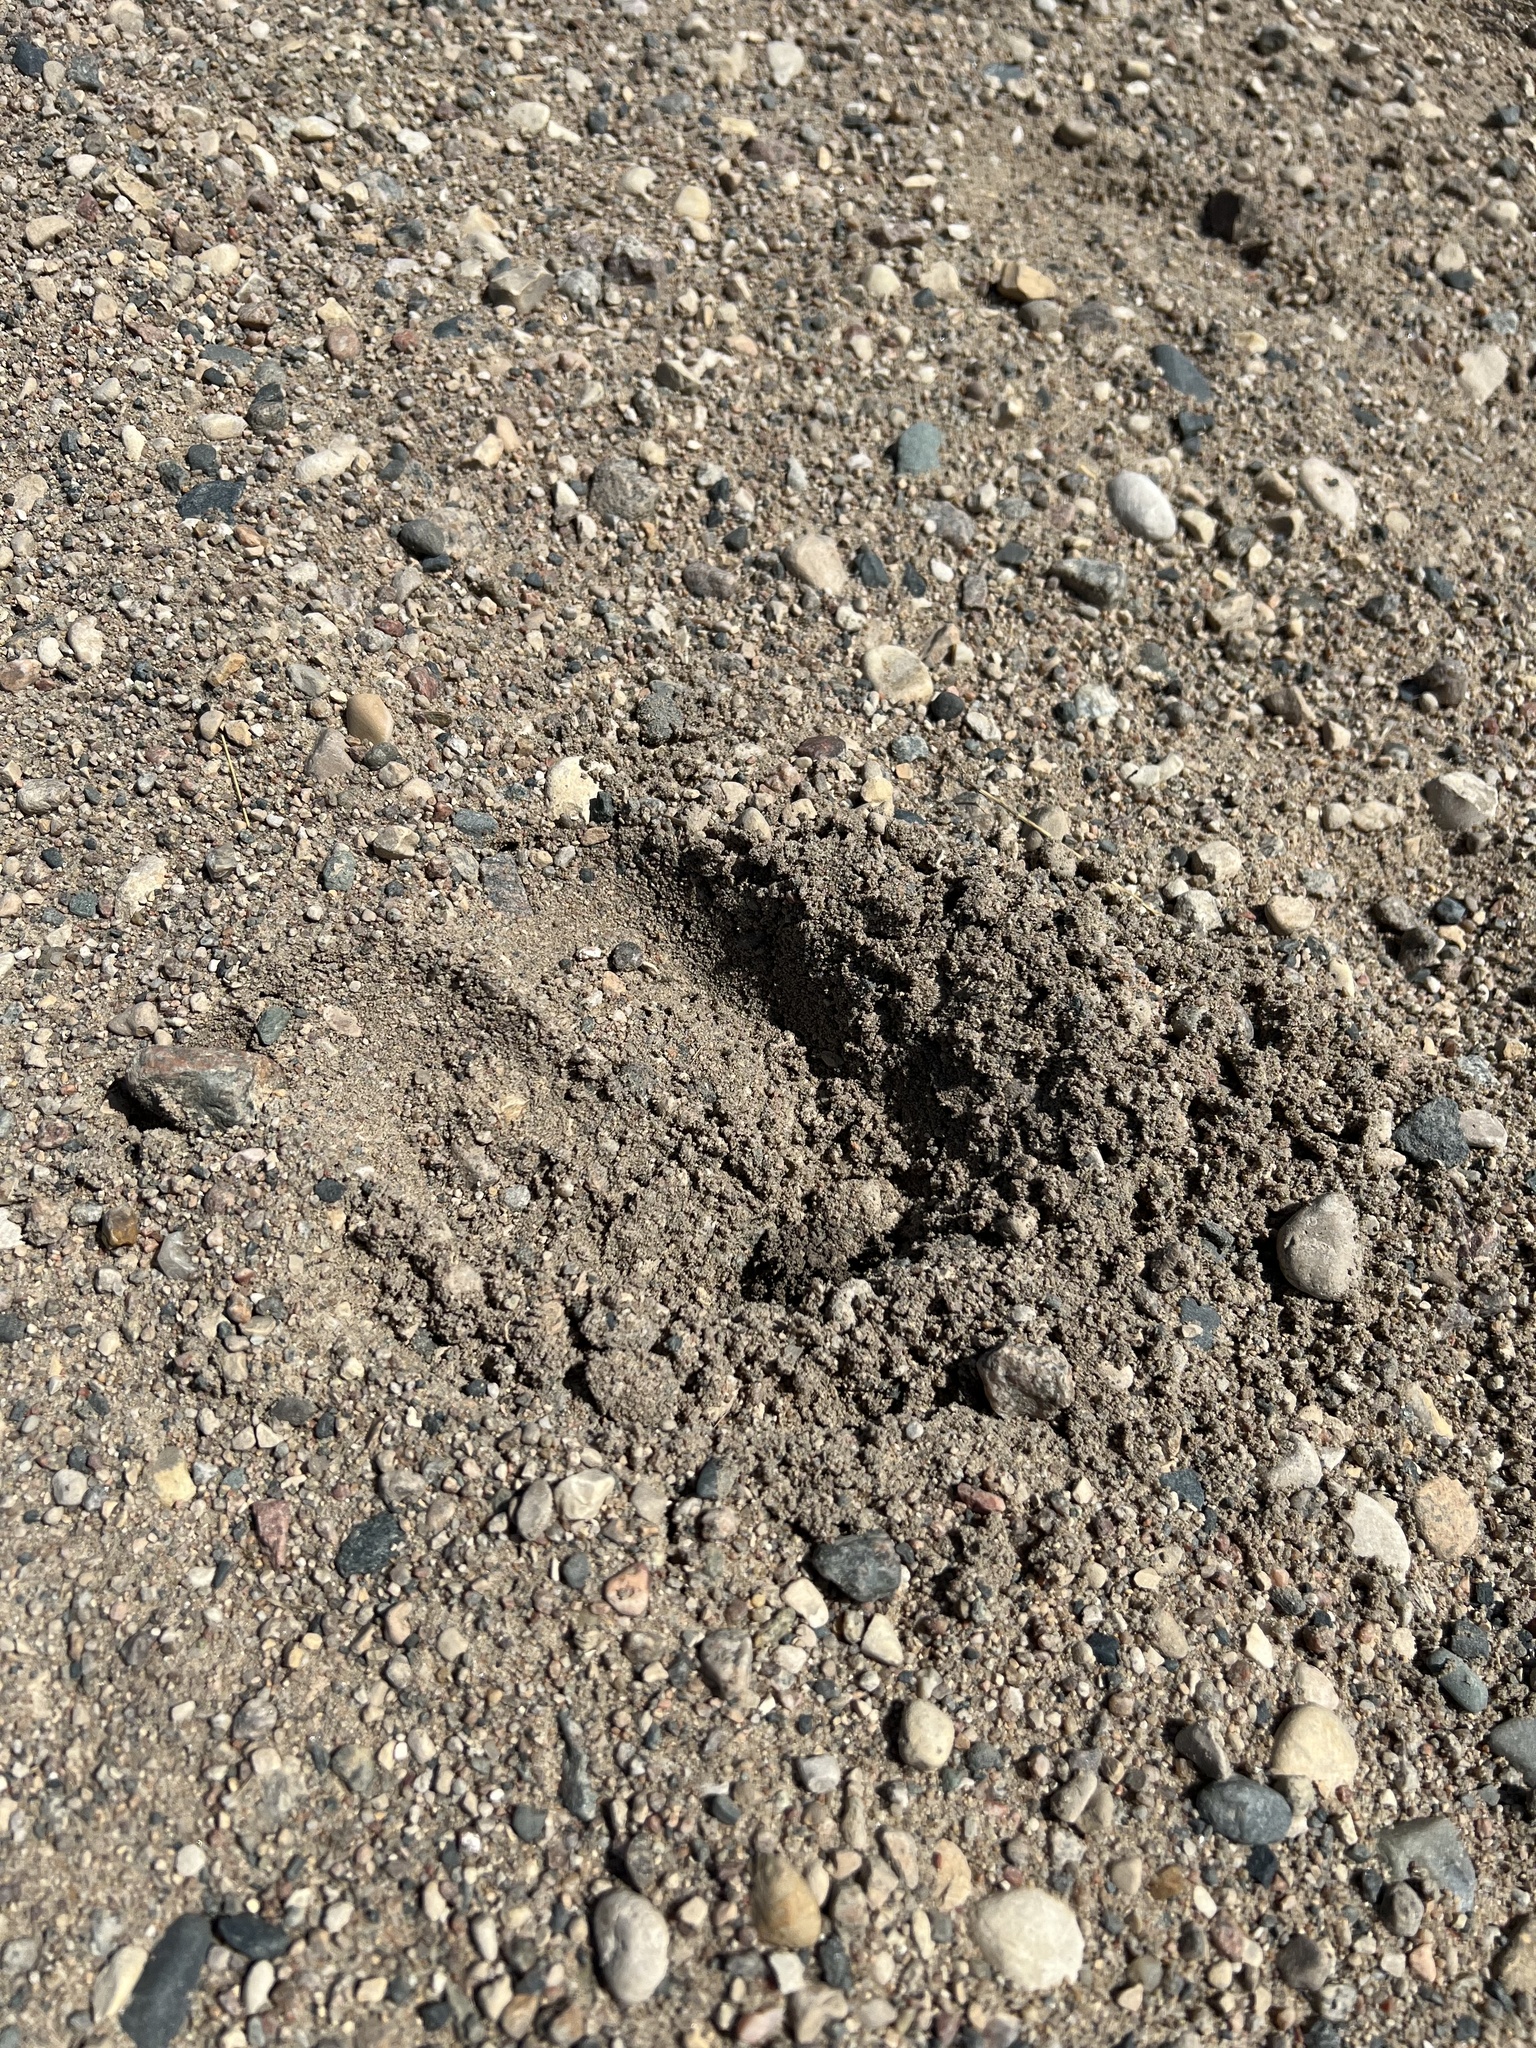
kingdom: Animalia
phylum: Chordata
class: Mammalia
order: Artiodactyla
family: Cervidae
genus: Alces
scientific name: Alces alces
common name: Moose
